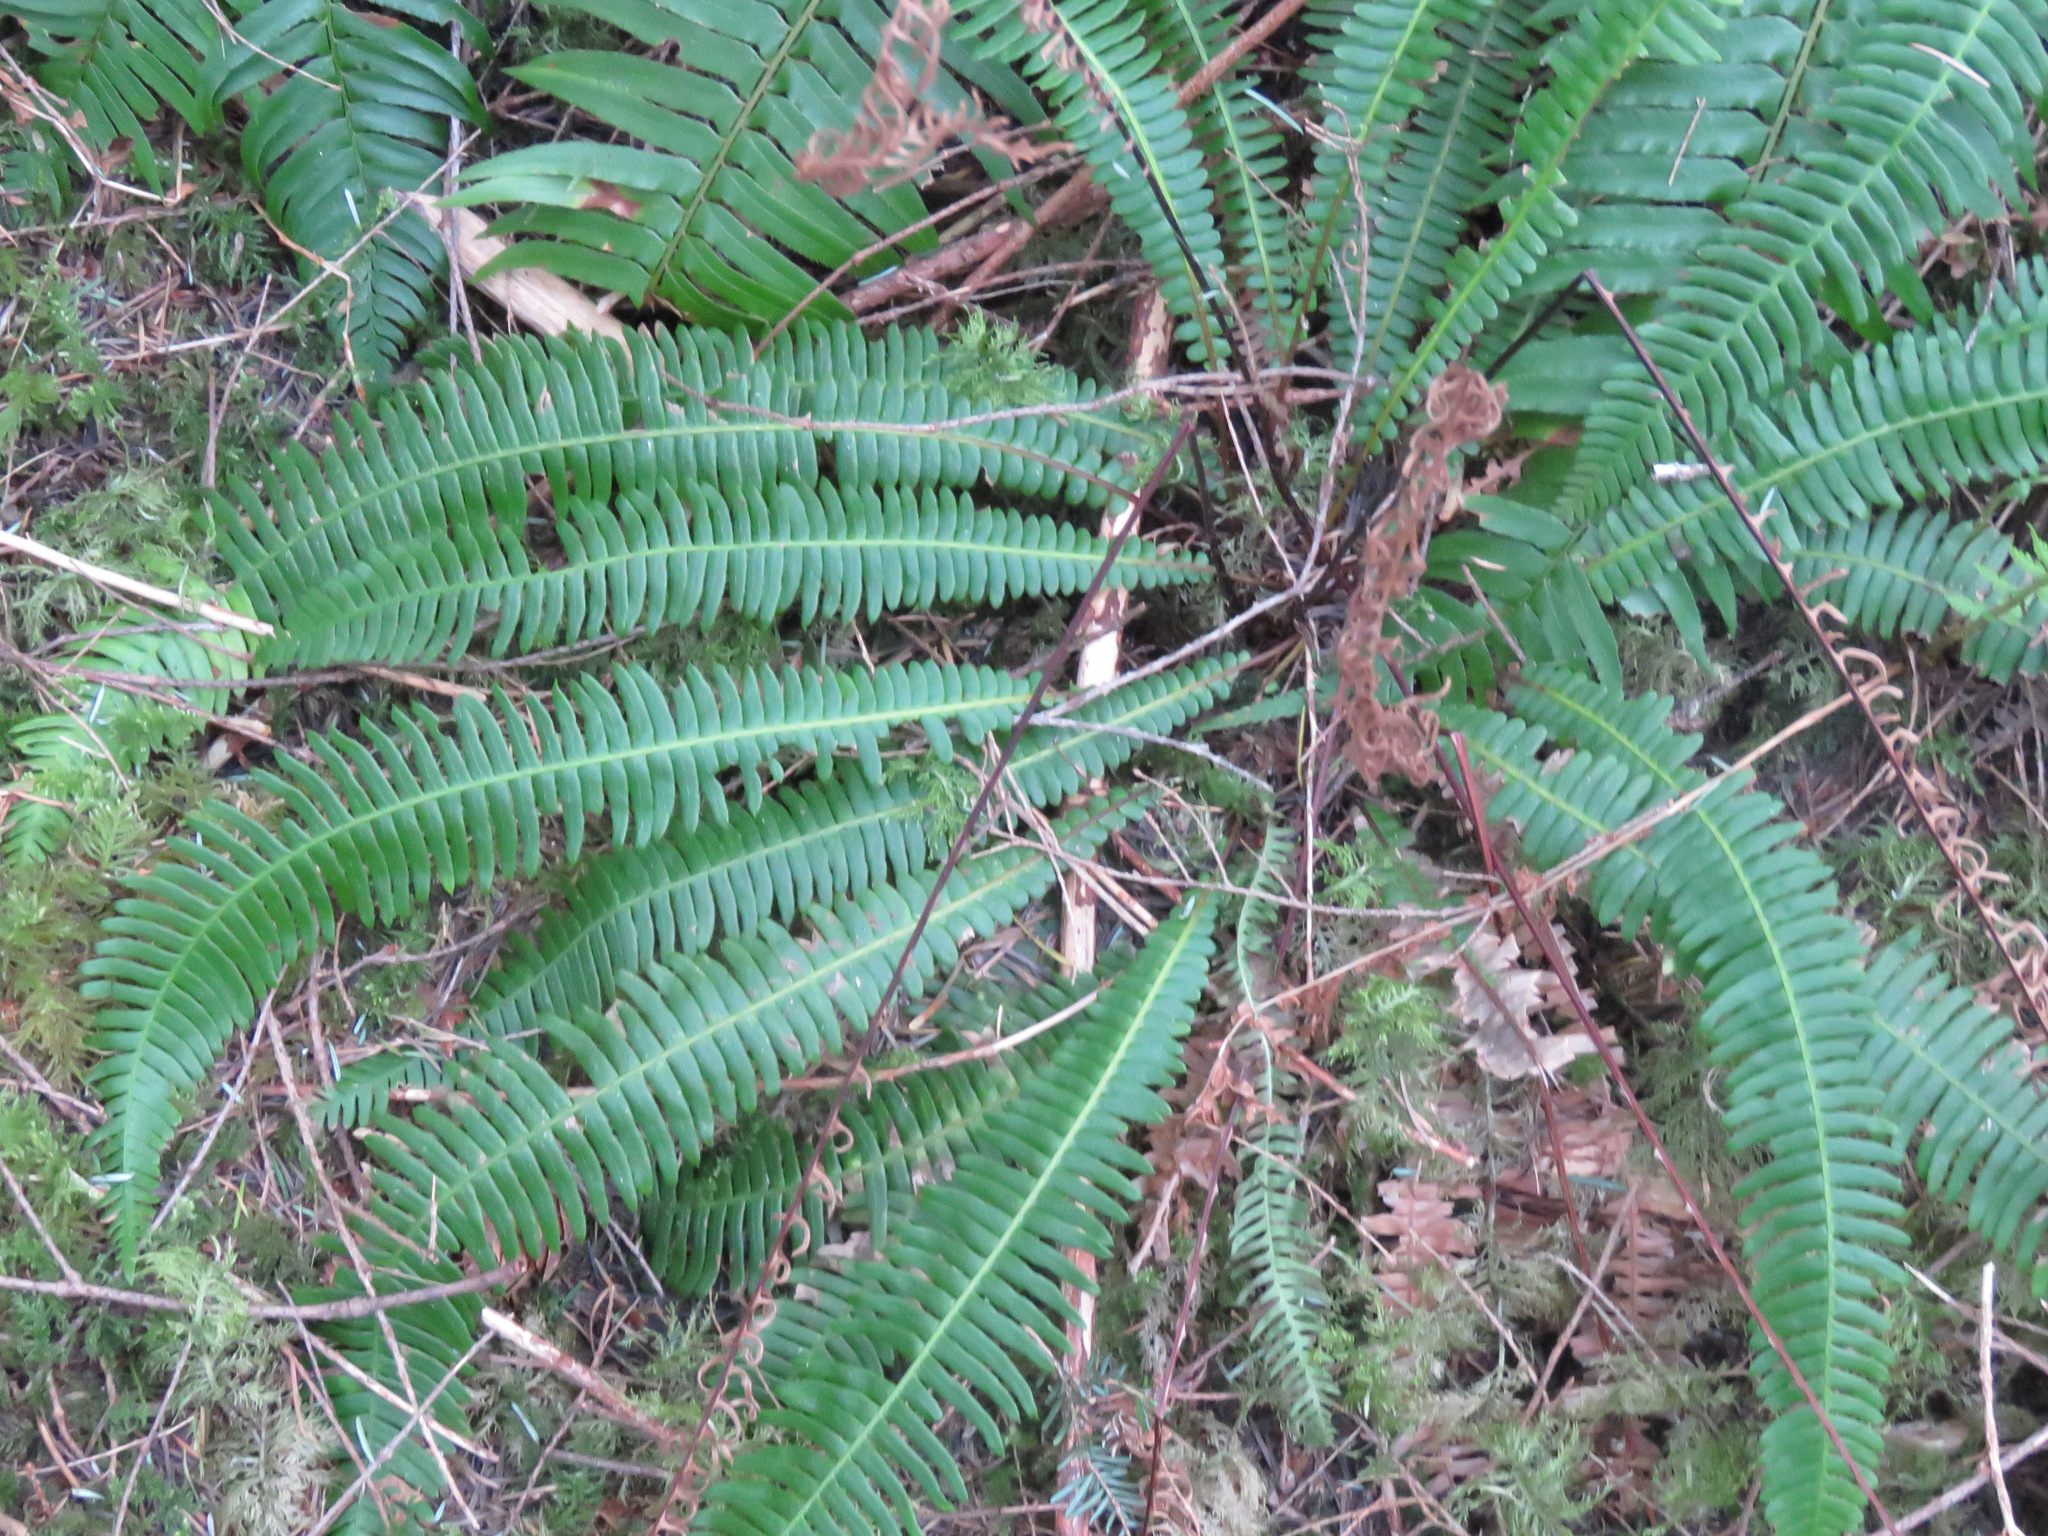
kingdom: Plantae
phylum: Tracheophyta
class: Polypodiopsida
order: Polypodiales
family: Blechnaceae
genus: Struthiopteris
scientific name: Struthiopteris spicant
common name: Deer fern
